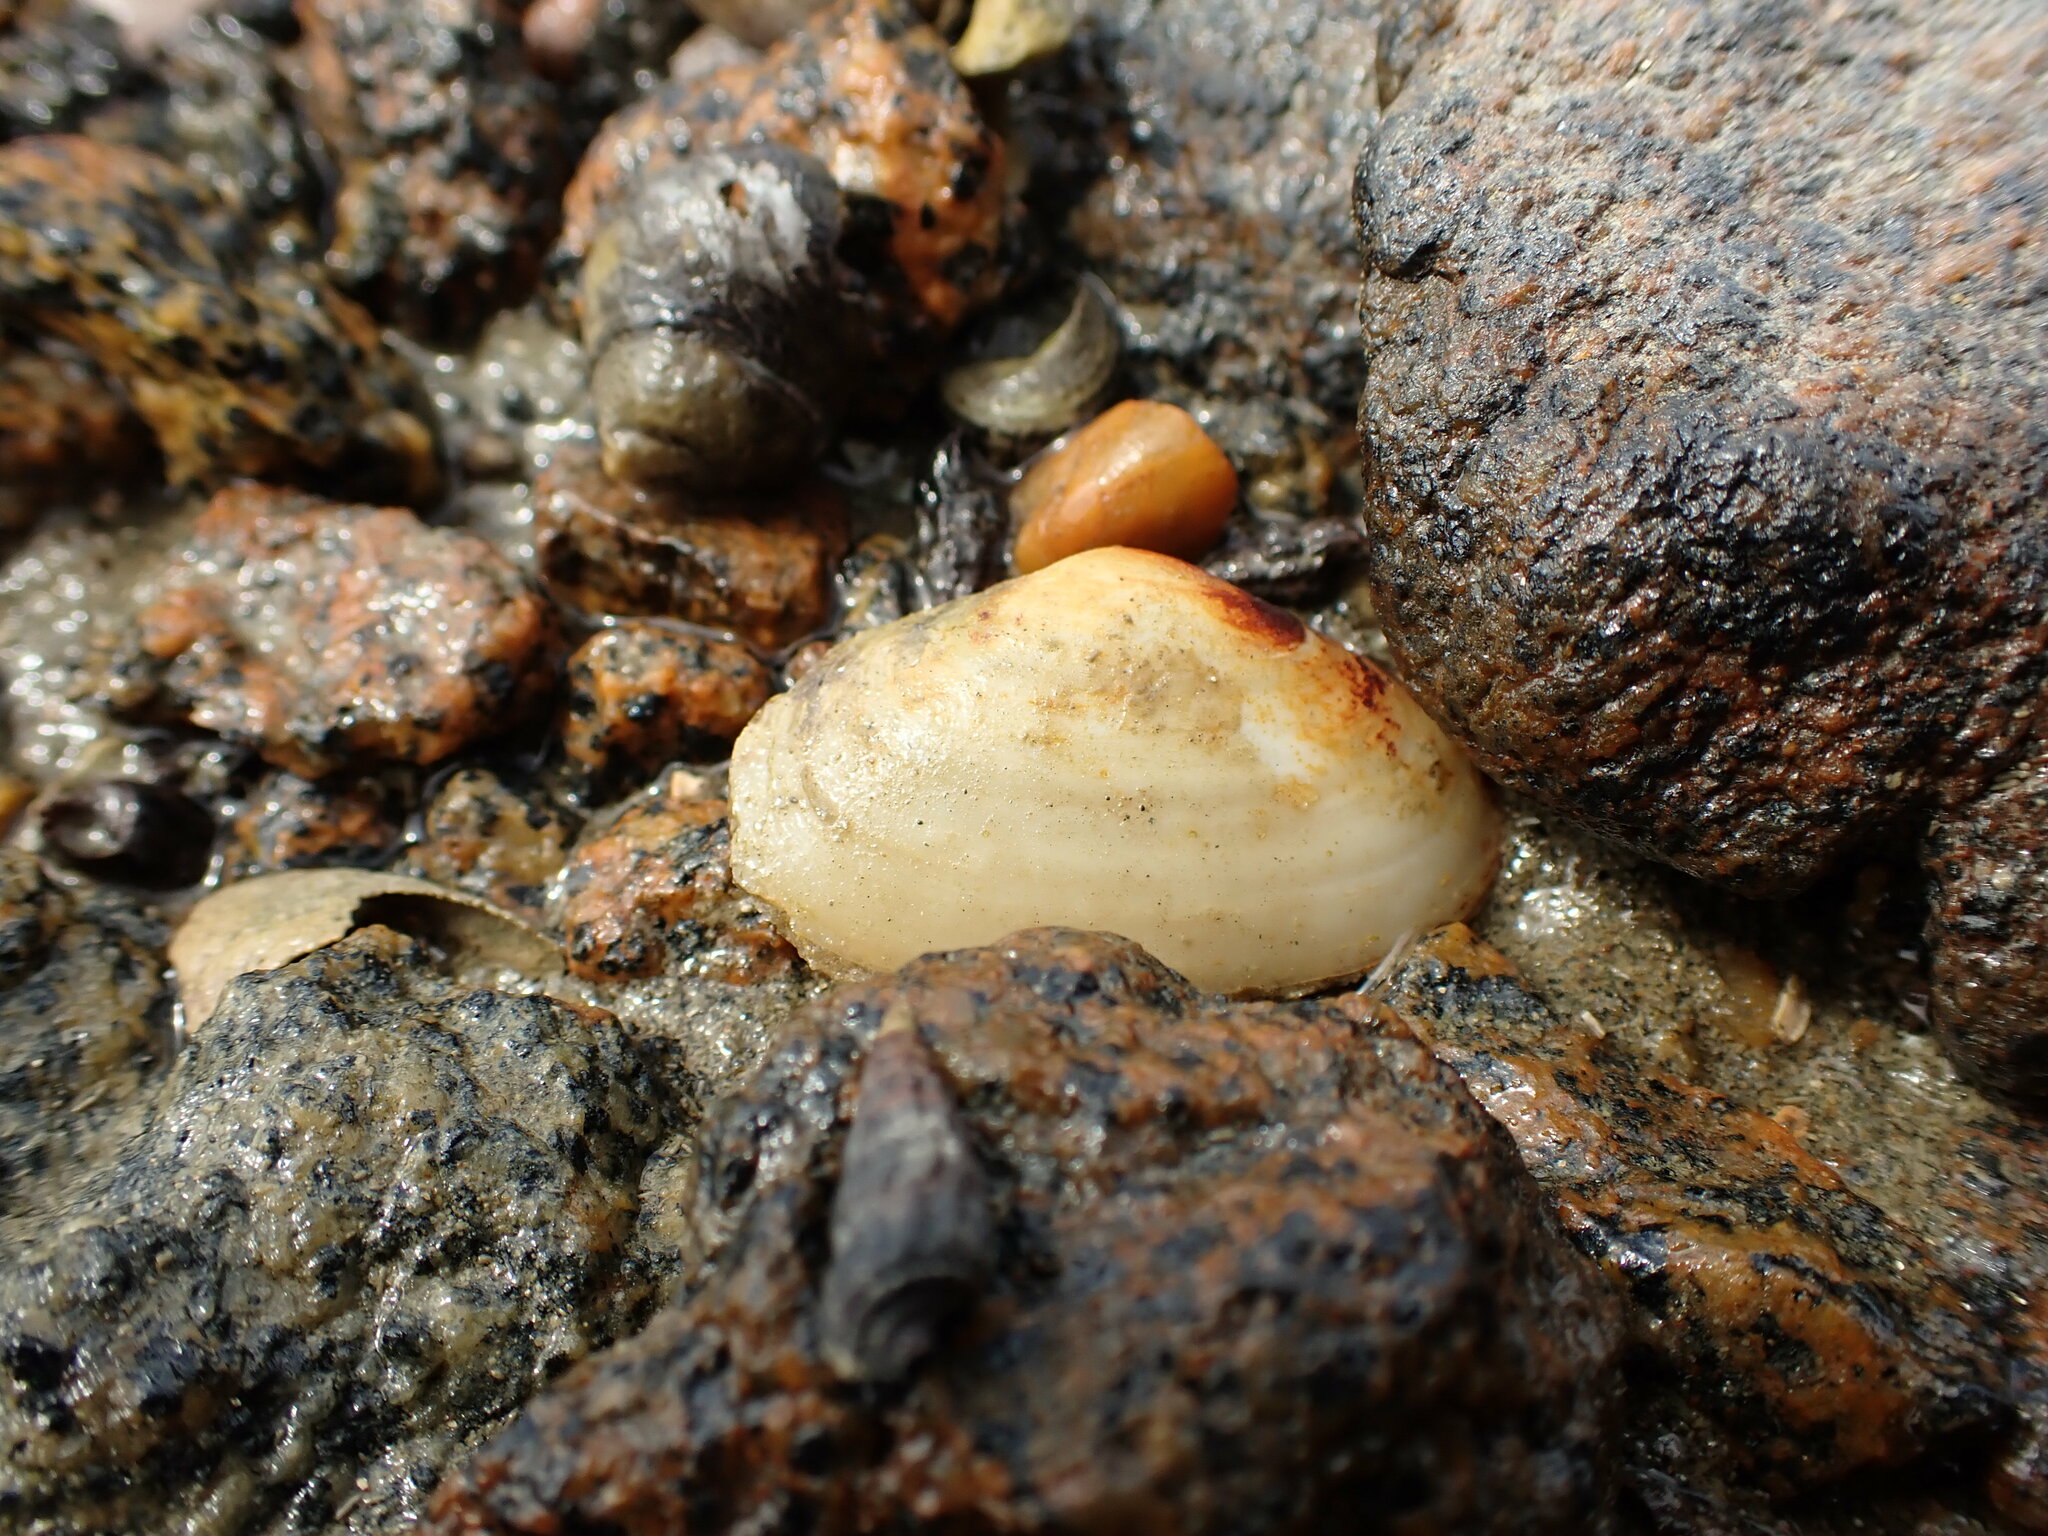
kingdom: Animalia
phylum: Mollusca
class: Bivalvia
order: Venerida
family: Mesodesmatidae
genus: Paphies
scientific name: Paphies australis
